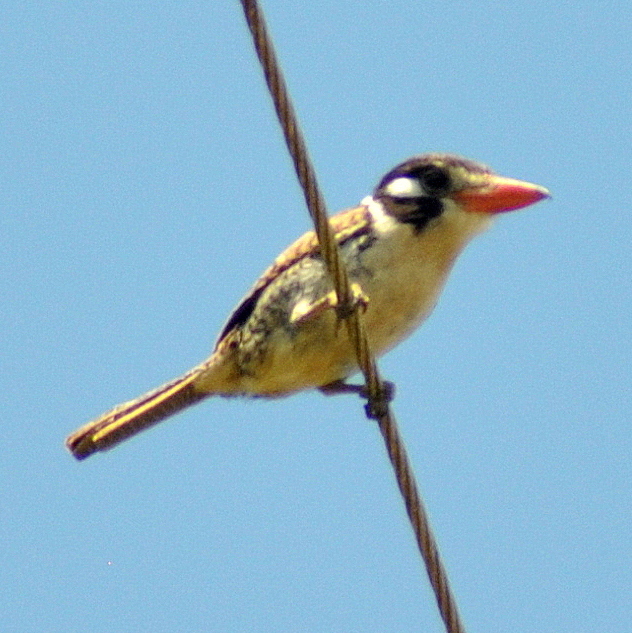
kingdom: Animalia
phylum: Chordata
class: Aves
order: Piciformes
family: Bucconidae
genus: Nystalus
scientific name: Nystalus chacuru
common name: White-eared puffbird
